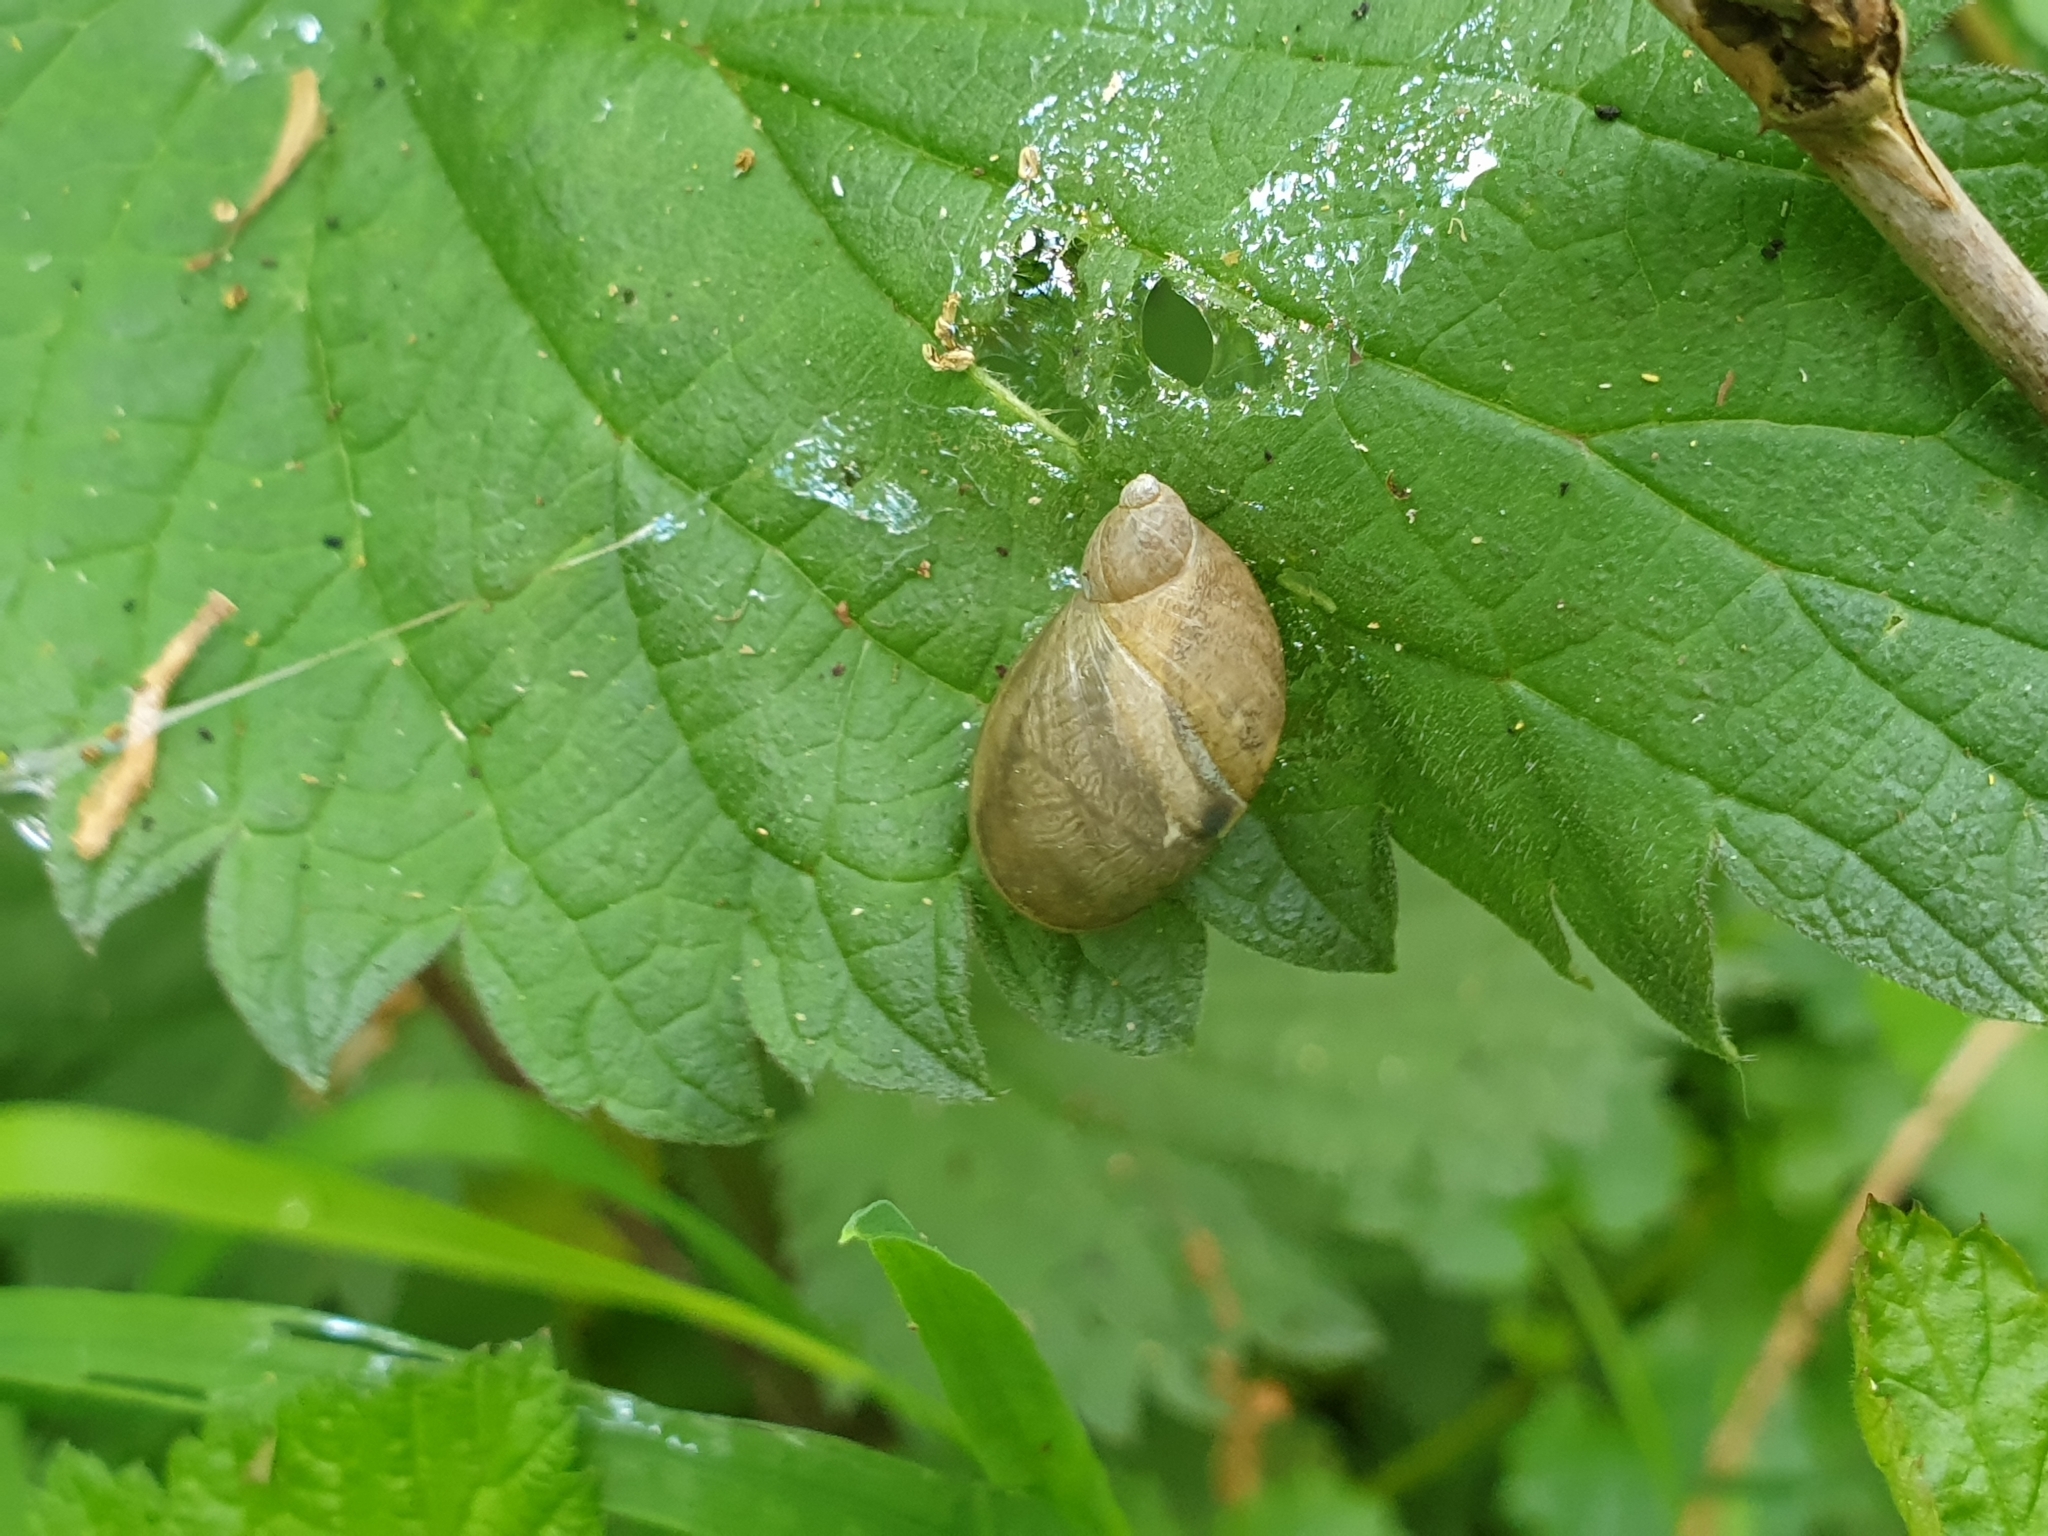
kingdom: Animalia
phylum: Mollusca
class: Gastropoda
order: Stylommatophora
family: Succineidae
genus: Succinea
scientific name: Succinea putris
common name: European ambersnail
